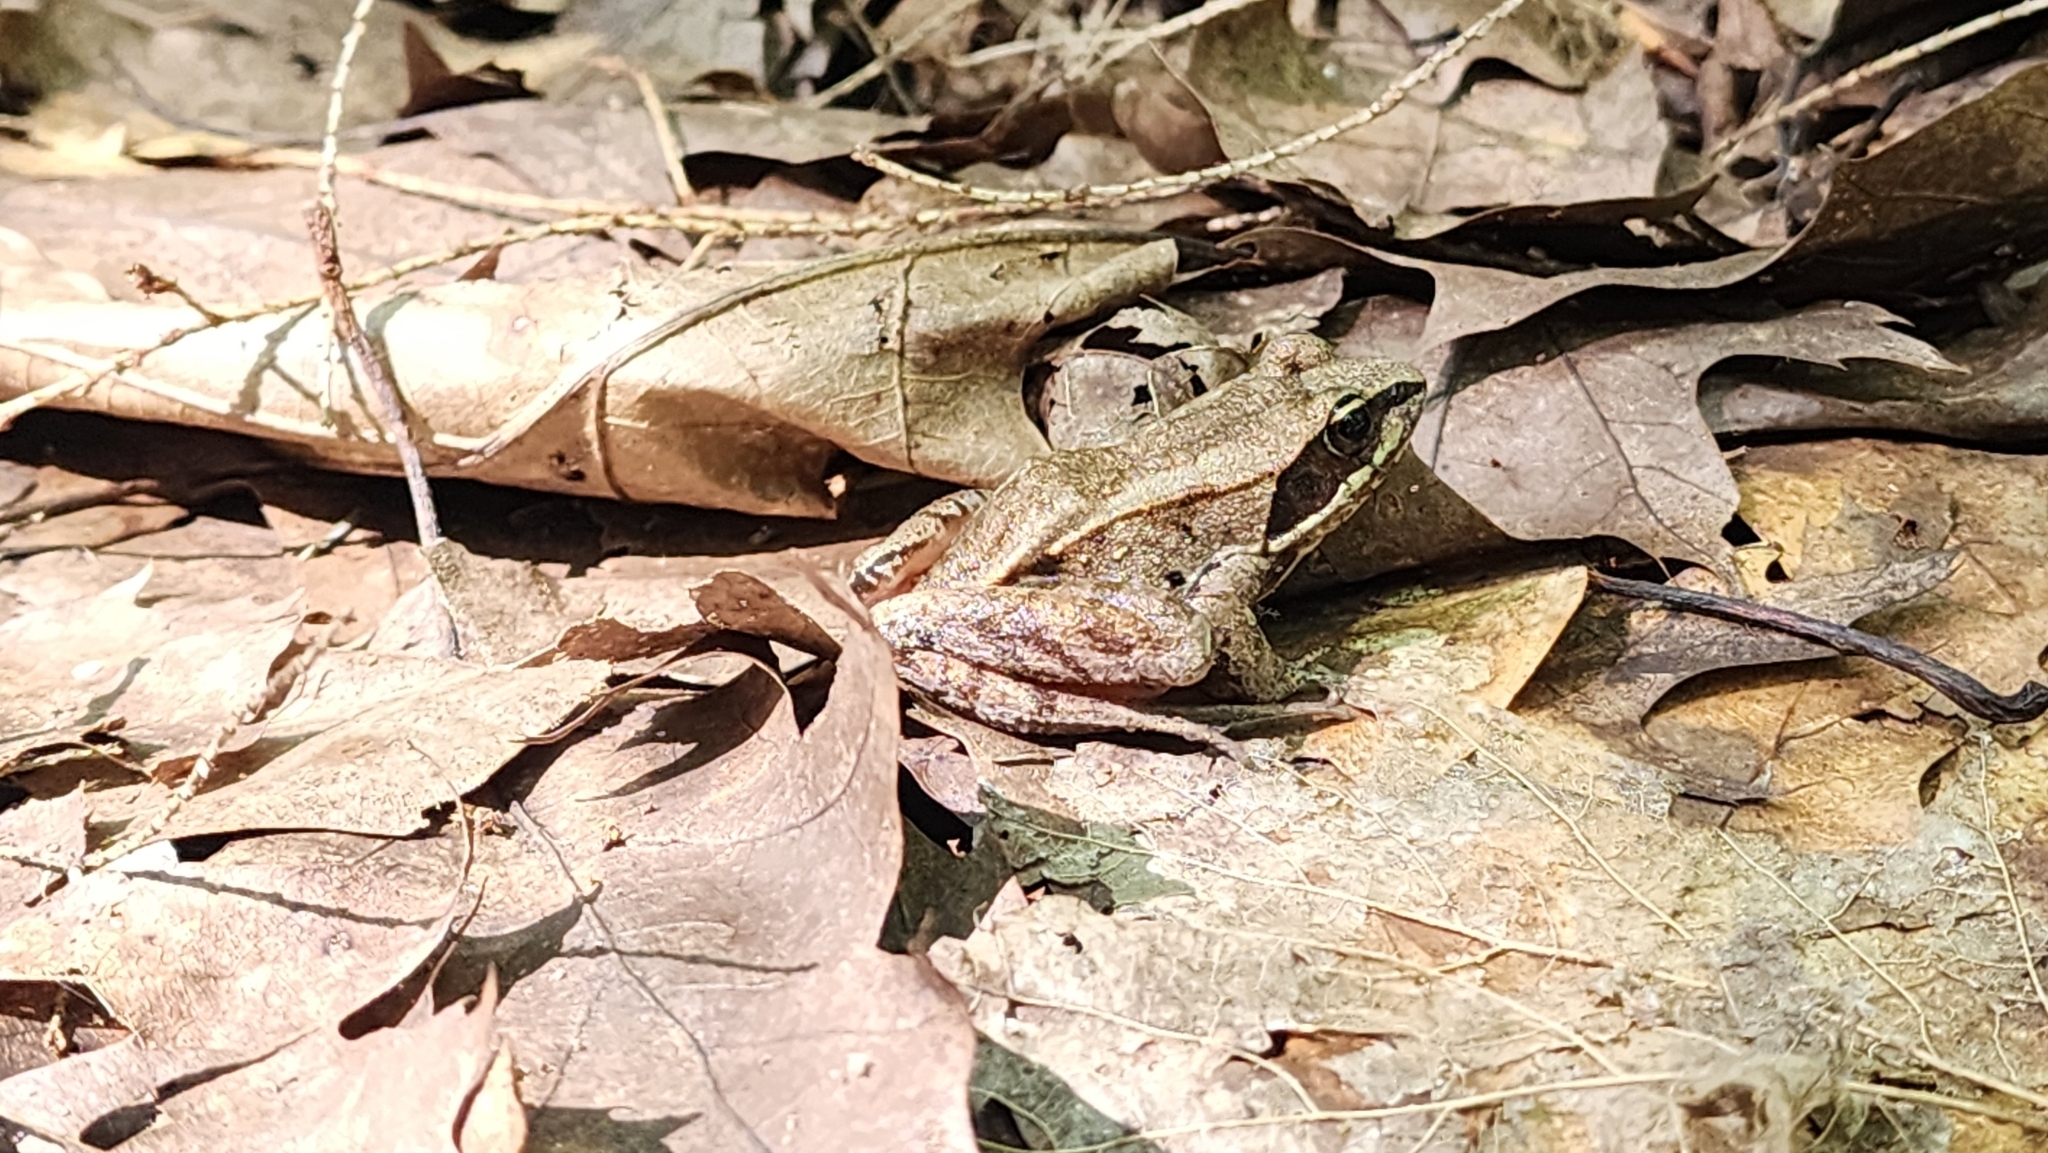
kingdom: Animalia
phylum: Chordata
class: Amphibia
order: Anura
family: Ranidae
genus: Lithobates
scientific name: Lithobates sylvaticus
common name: Wood frog
